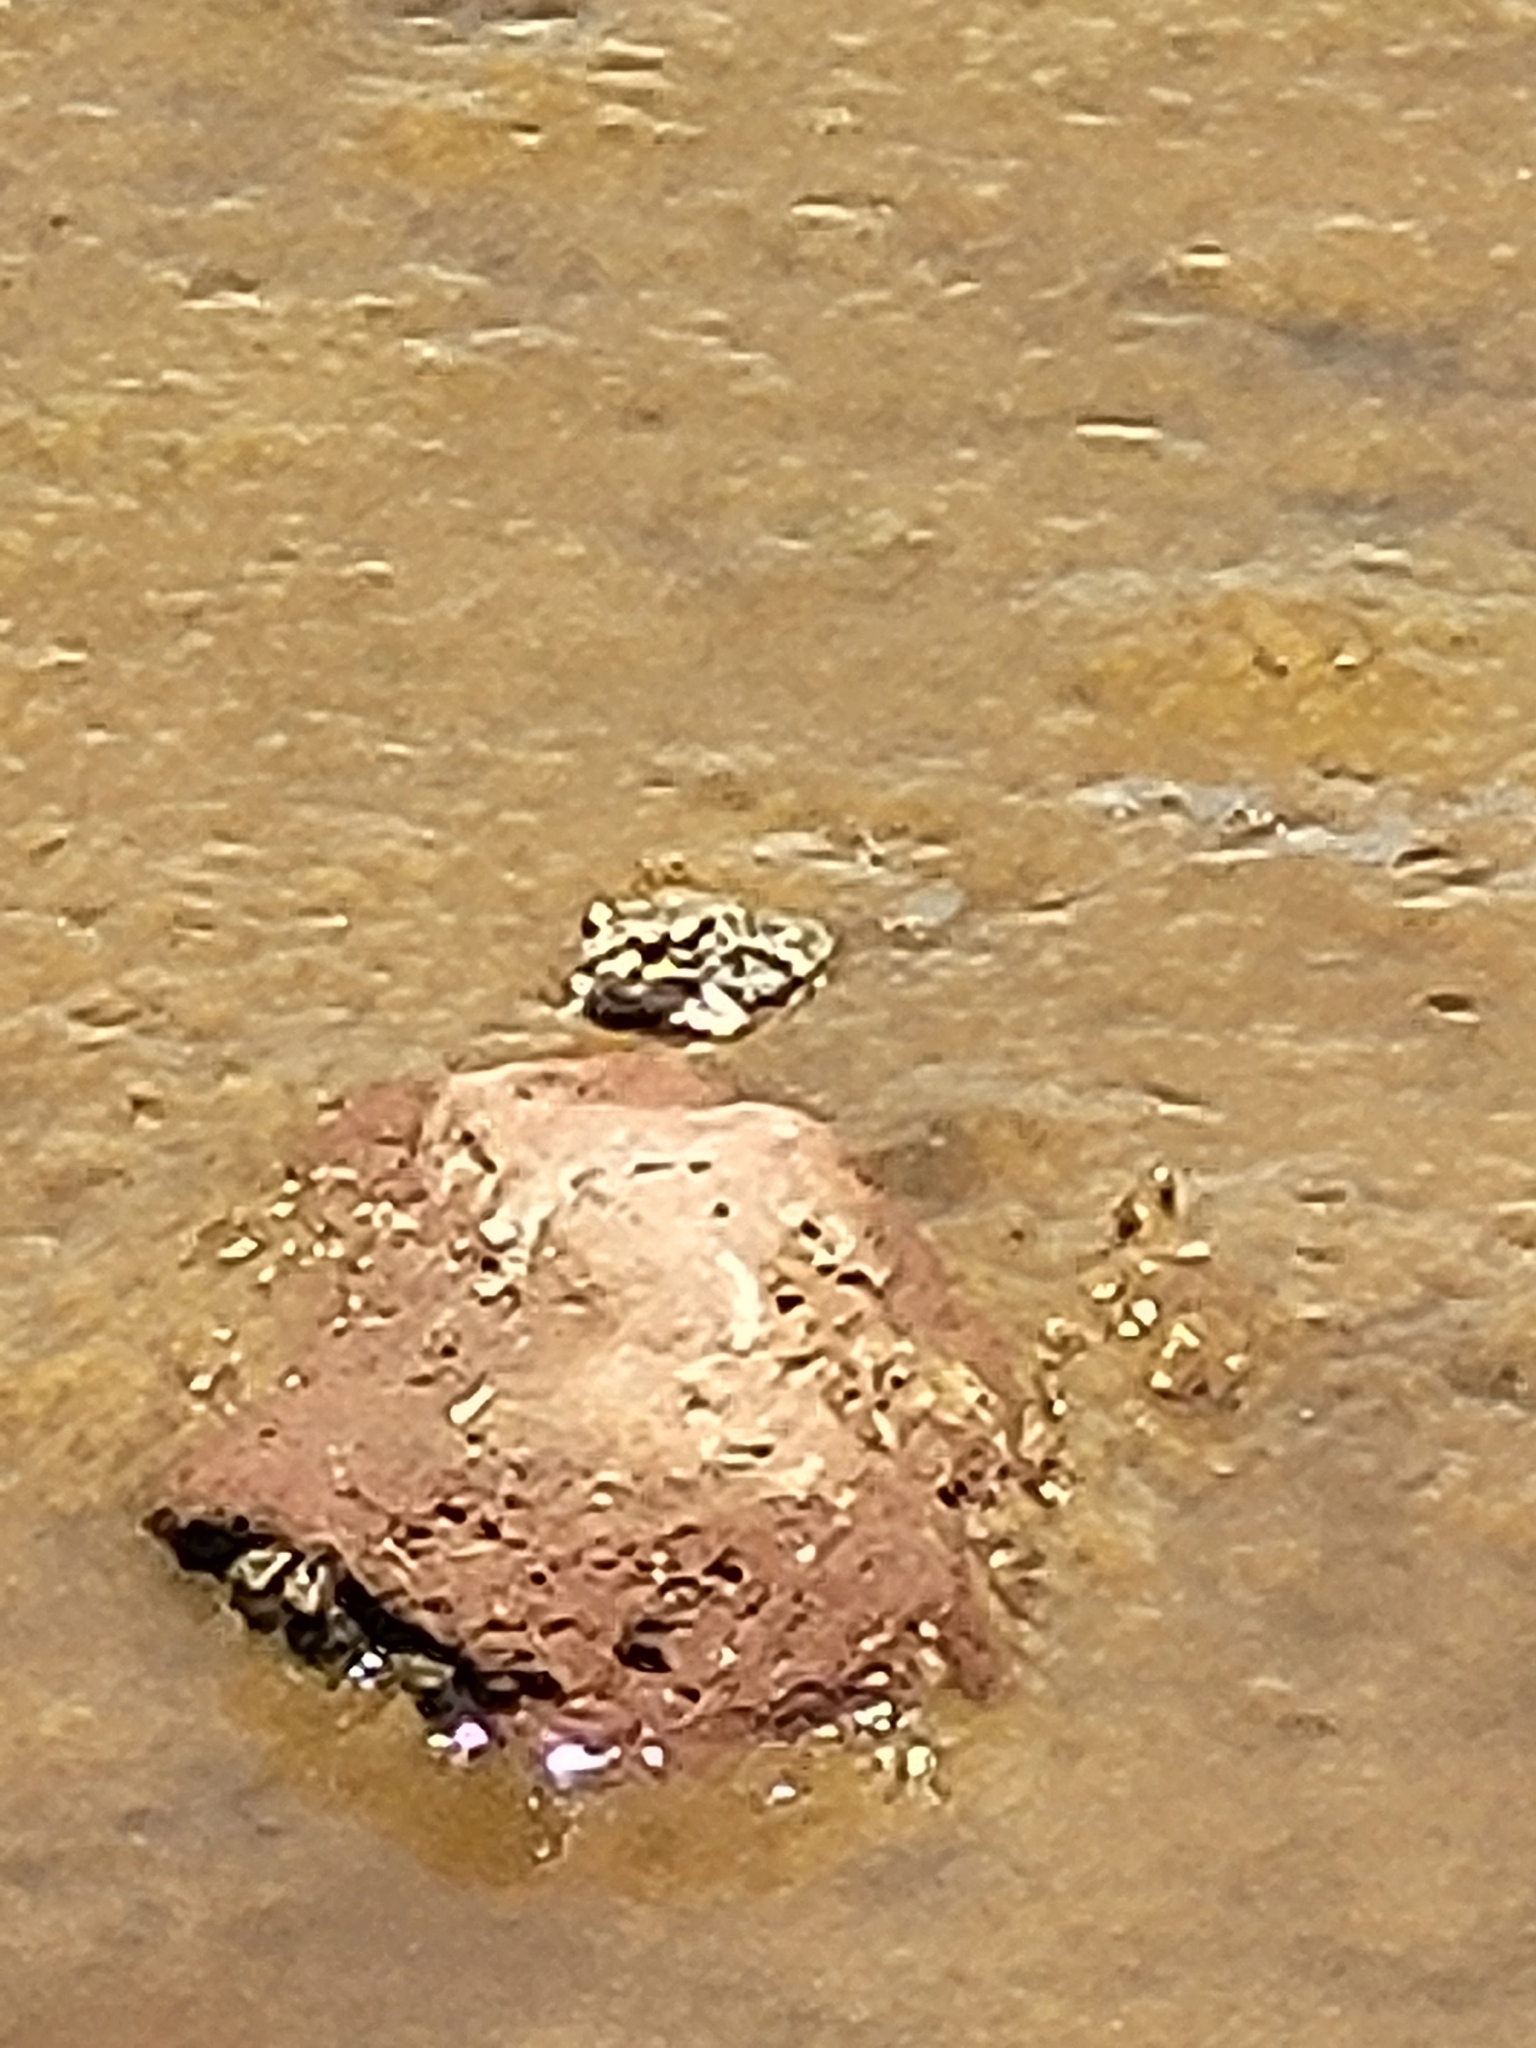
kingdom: Animalia
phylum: Chordata
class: Amphibia
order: Anura
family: Bufonidae
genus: Bufotes
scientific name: Bufotes viridis
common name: European green toad
